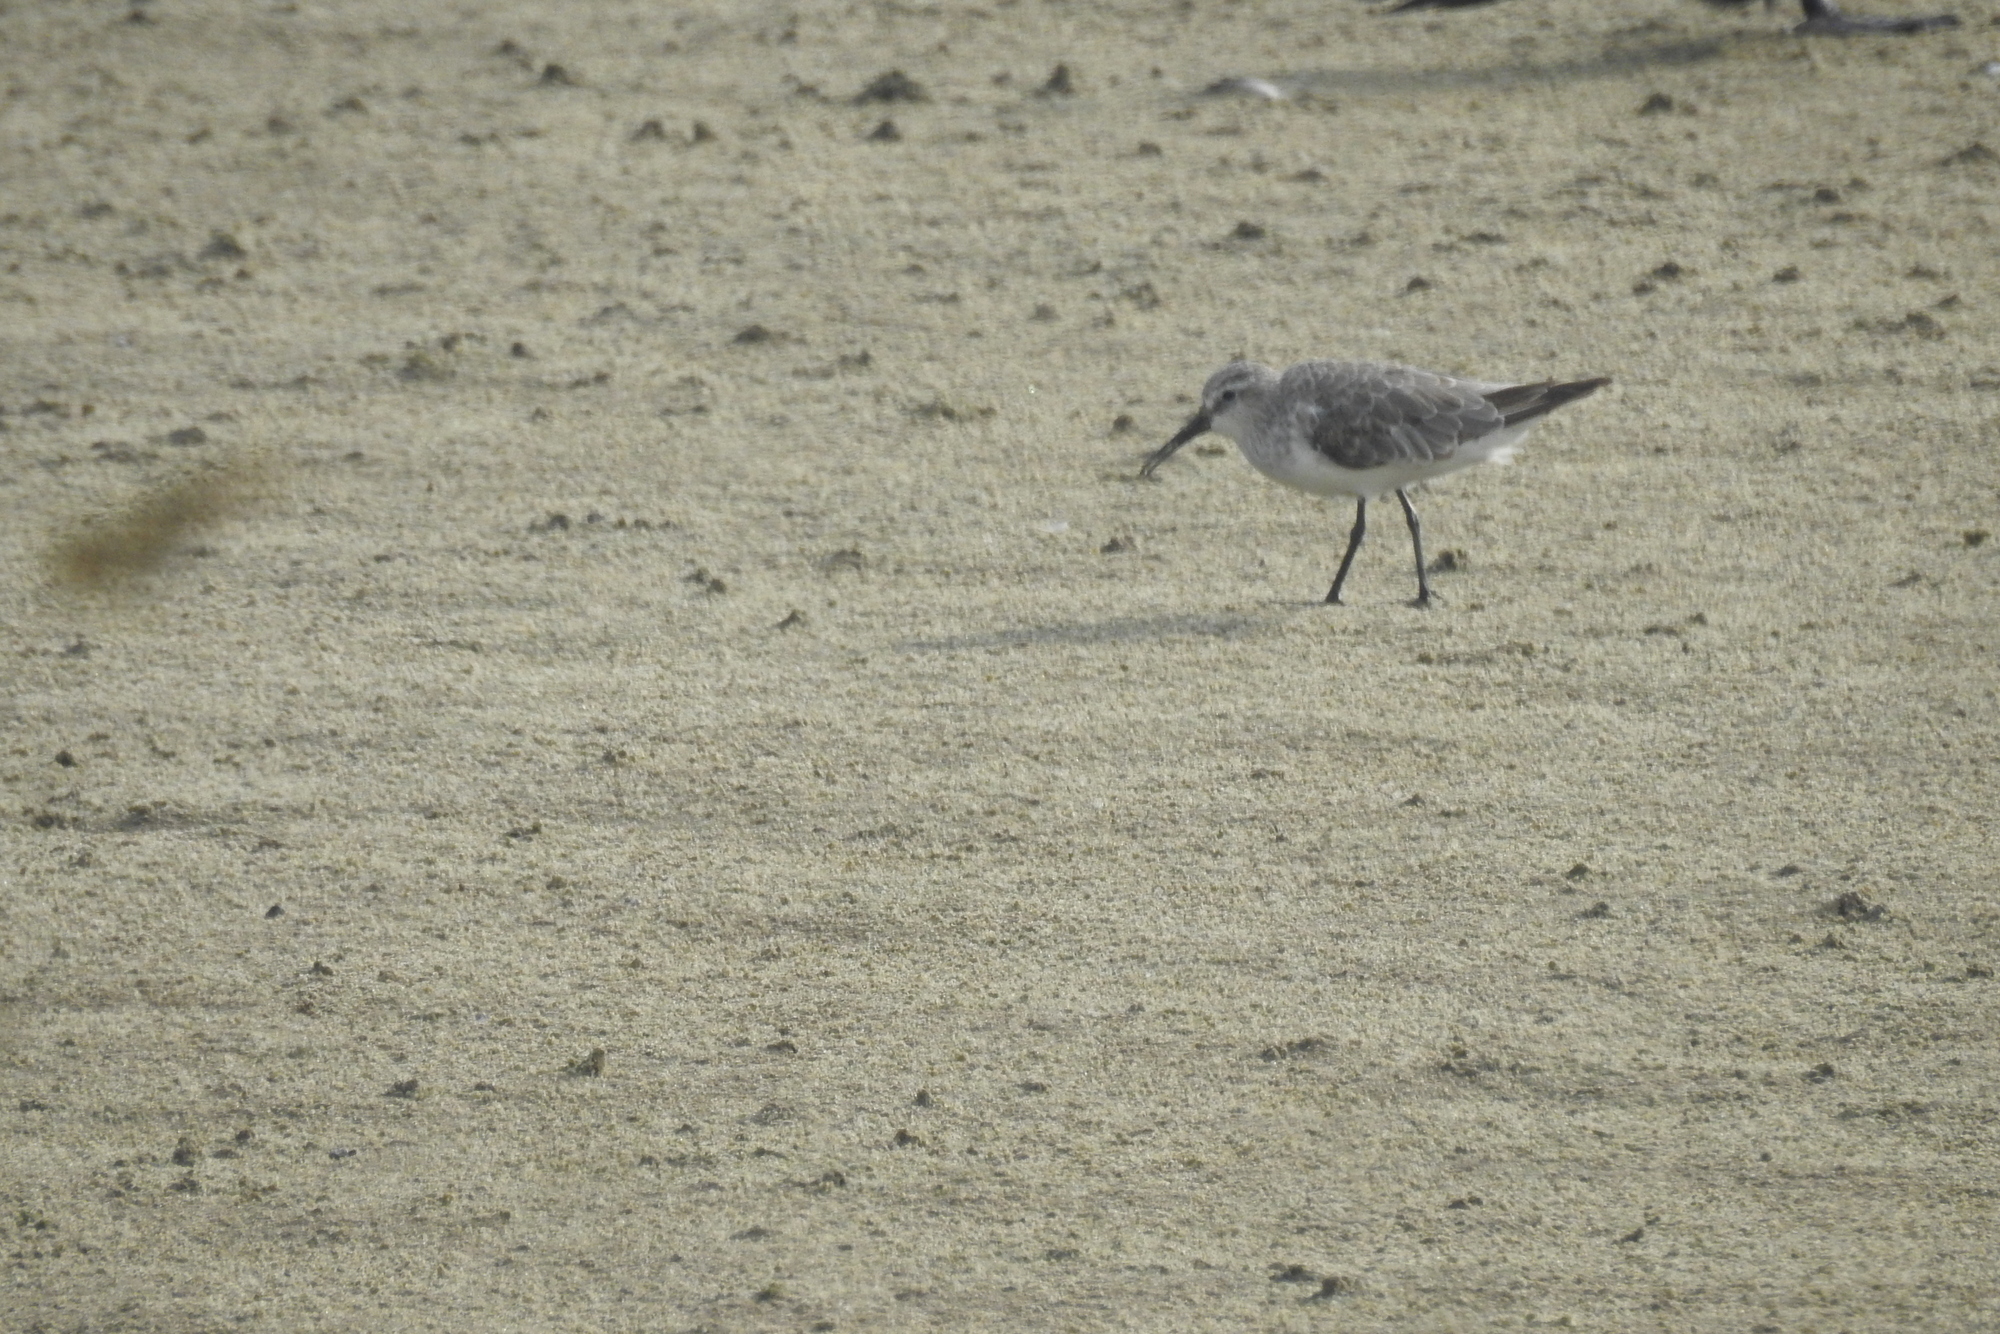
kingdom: Animalia
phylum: Chordata
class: Aves
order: Charadriiformes
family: Scolopacidae
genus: Calidris
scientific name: Calidris ferruginea
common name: Curlew sandpiper
